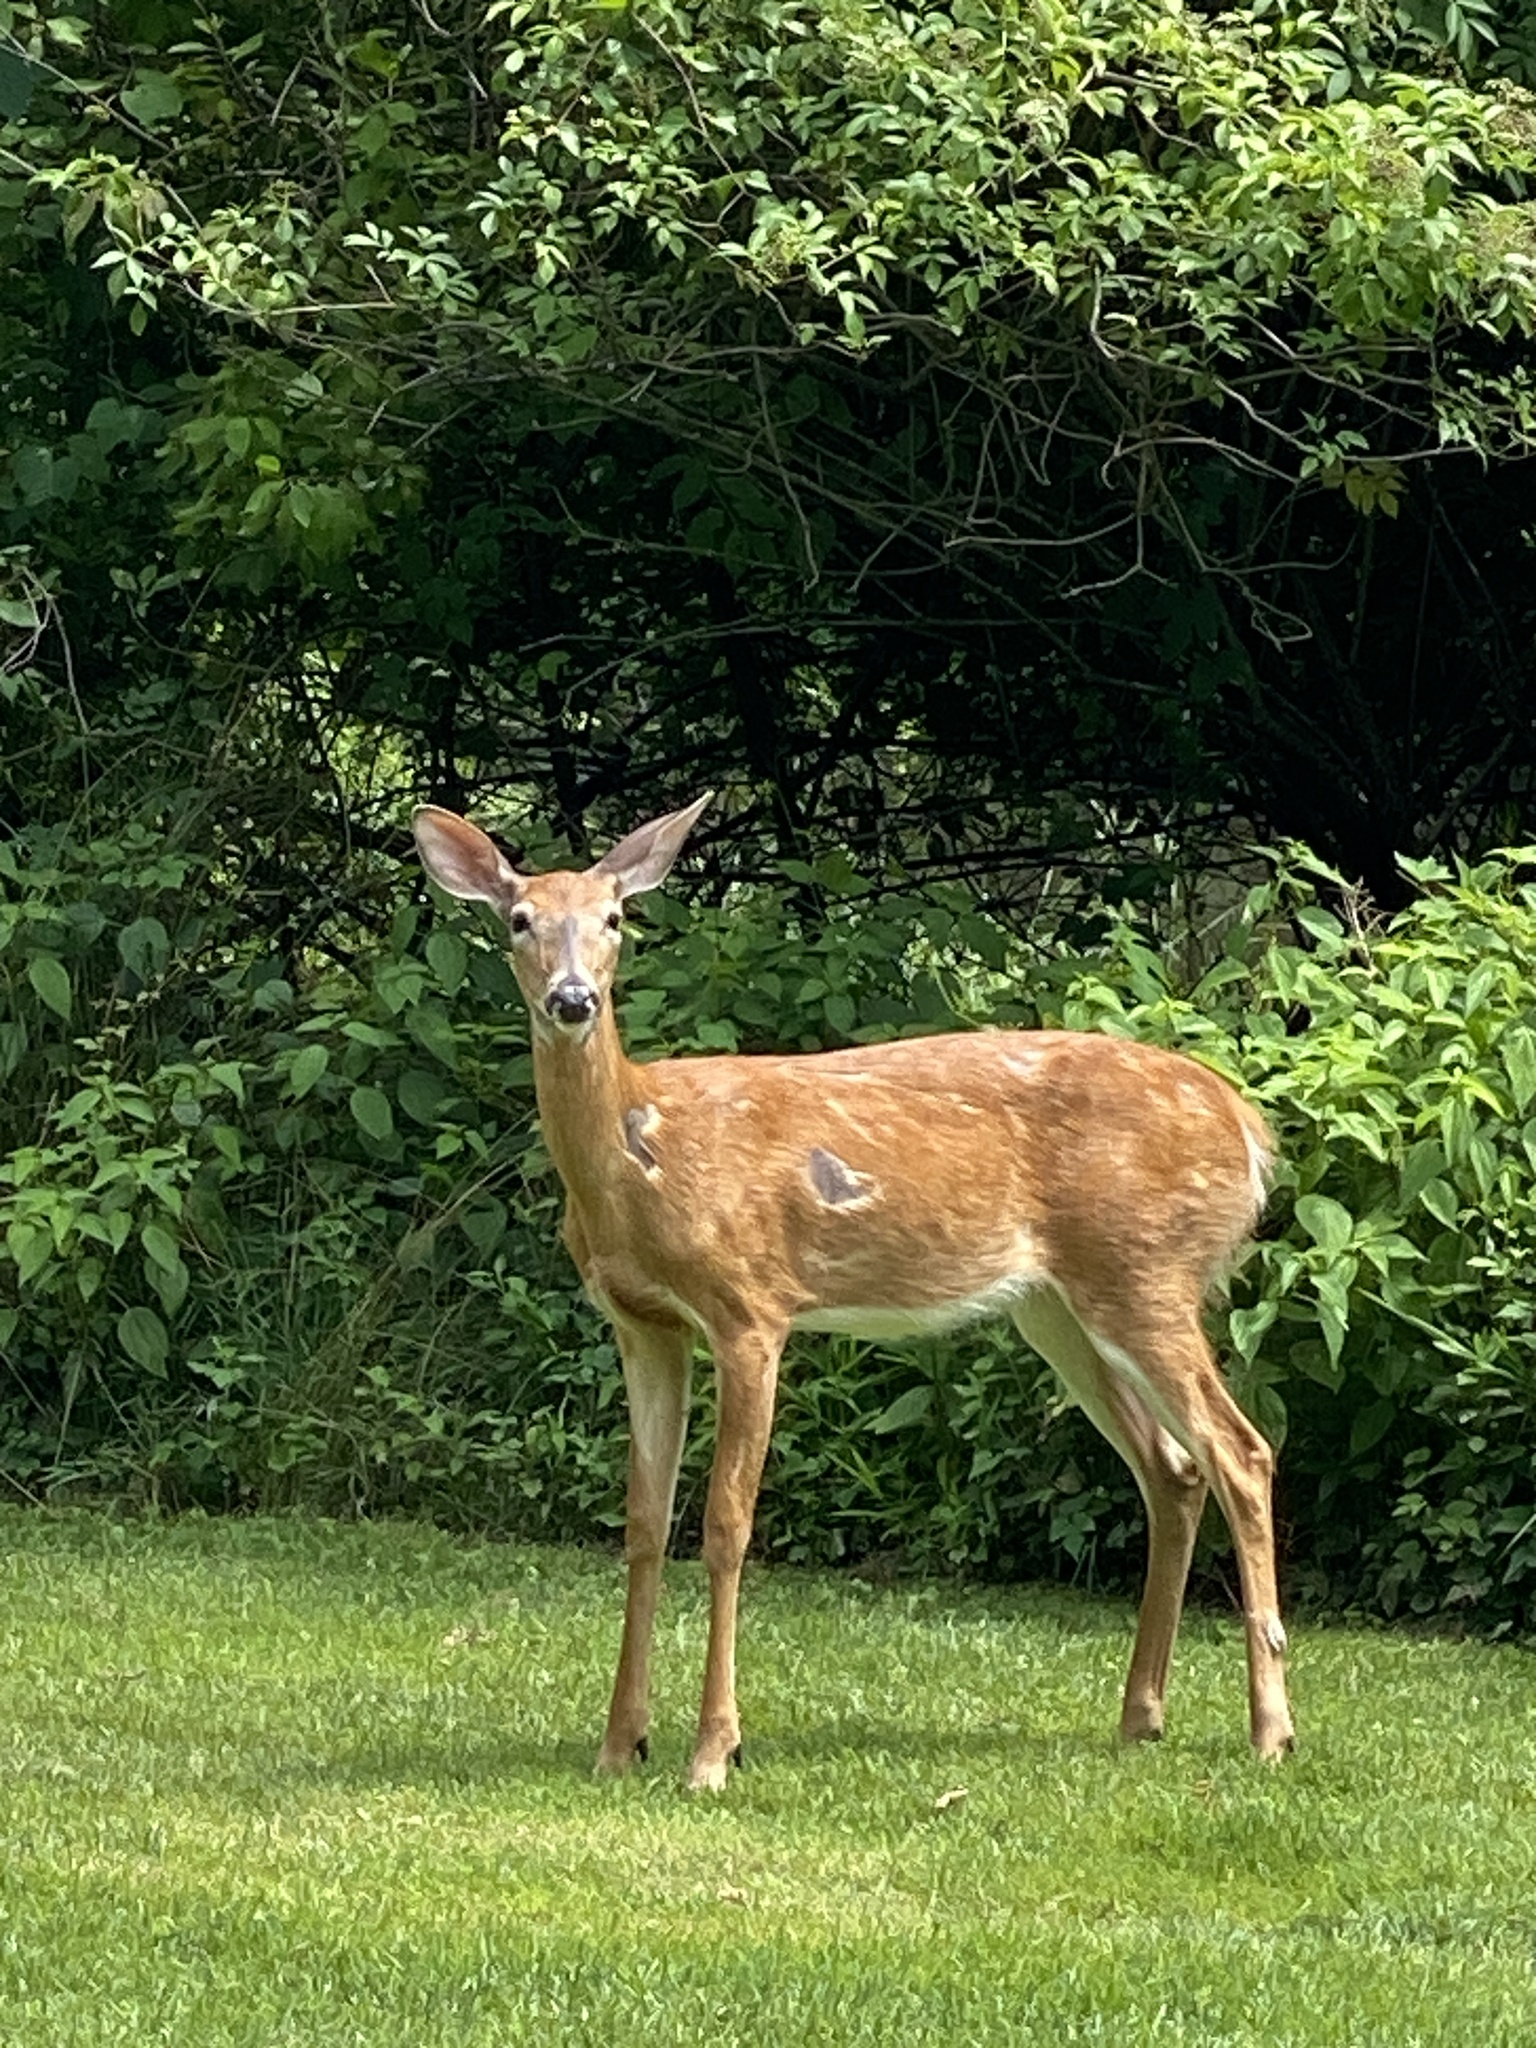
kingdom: Animalia
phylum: Chordata
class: Mammalia
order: Artiodactyla
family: Cervidae
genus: Odocoileus
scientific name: Odocoileus virginianus
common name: White-tailed deer
